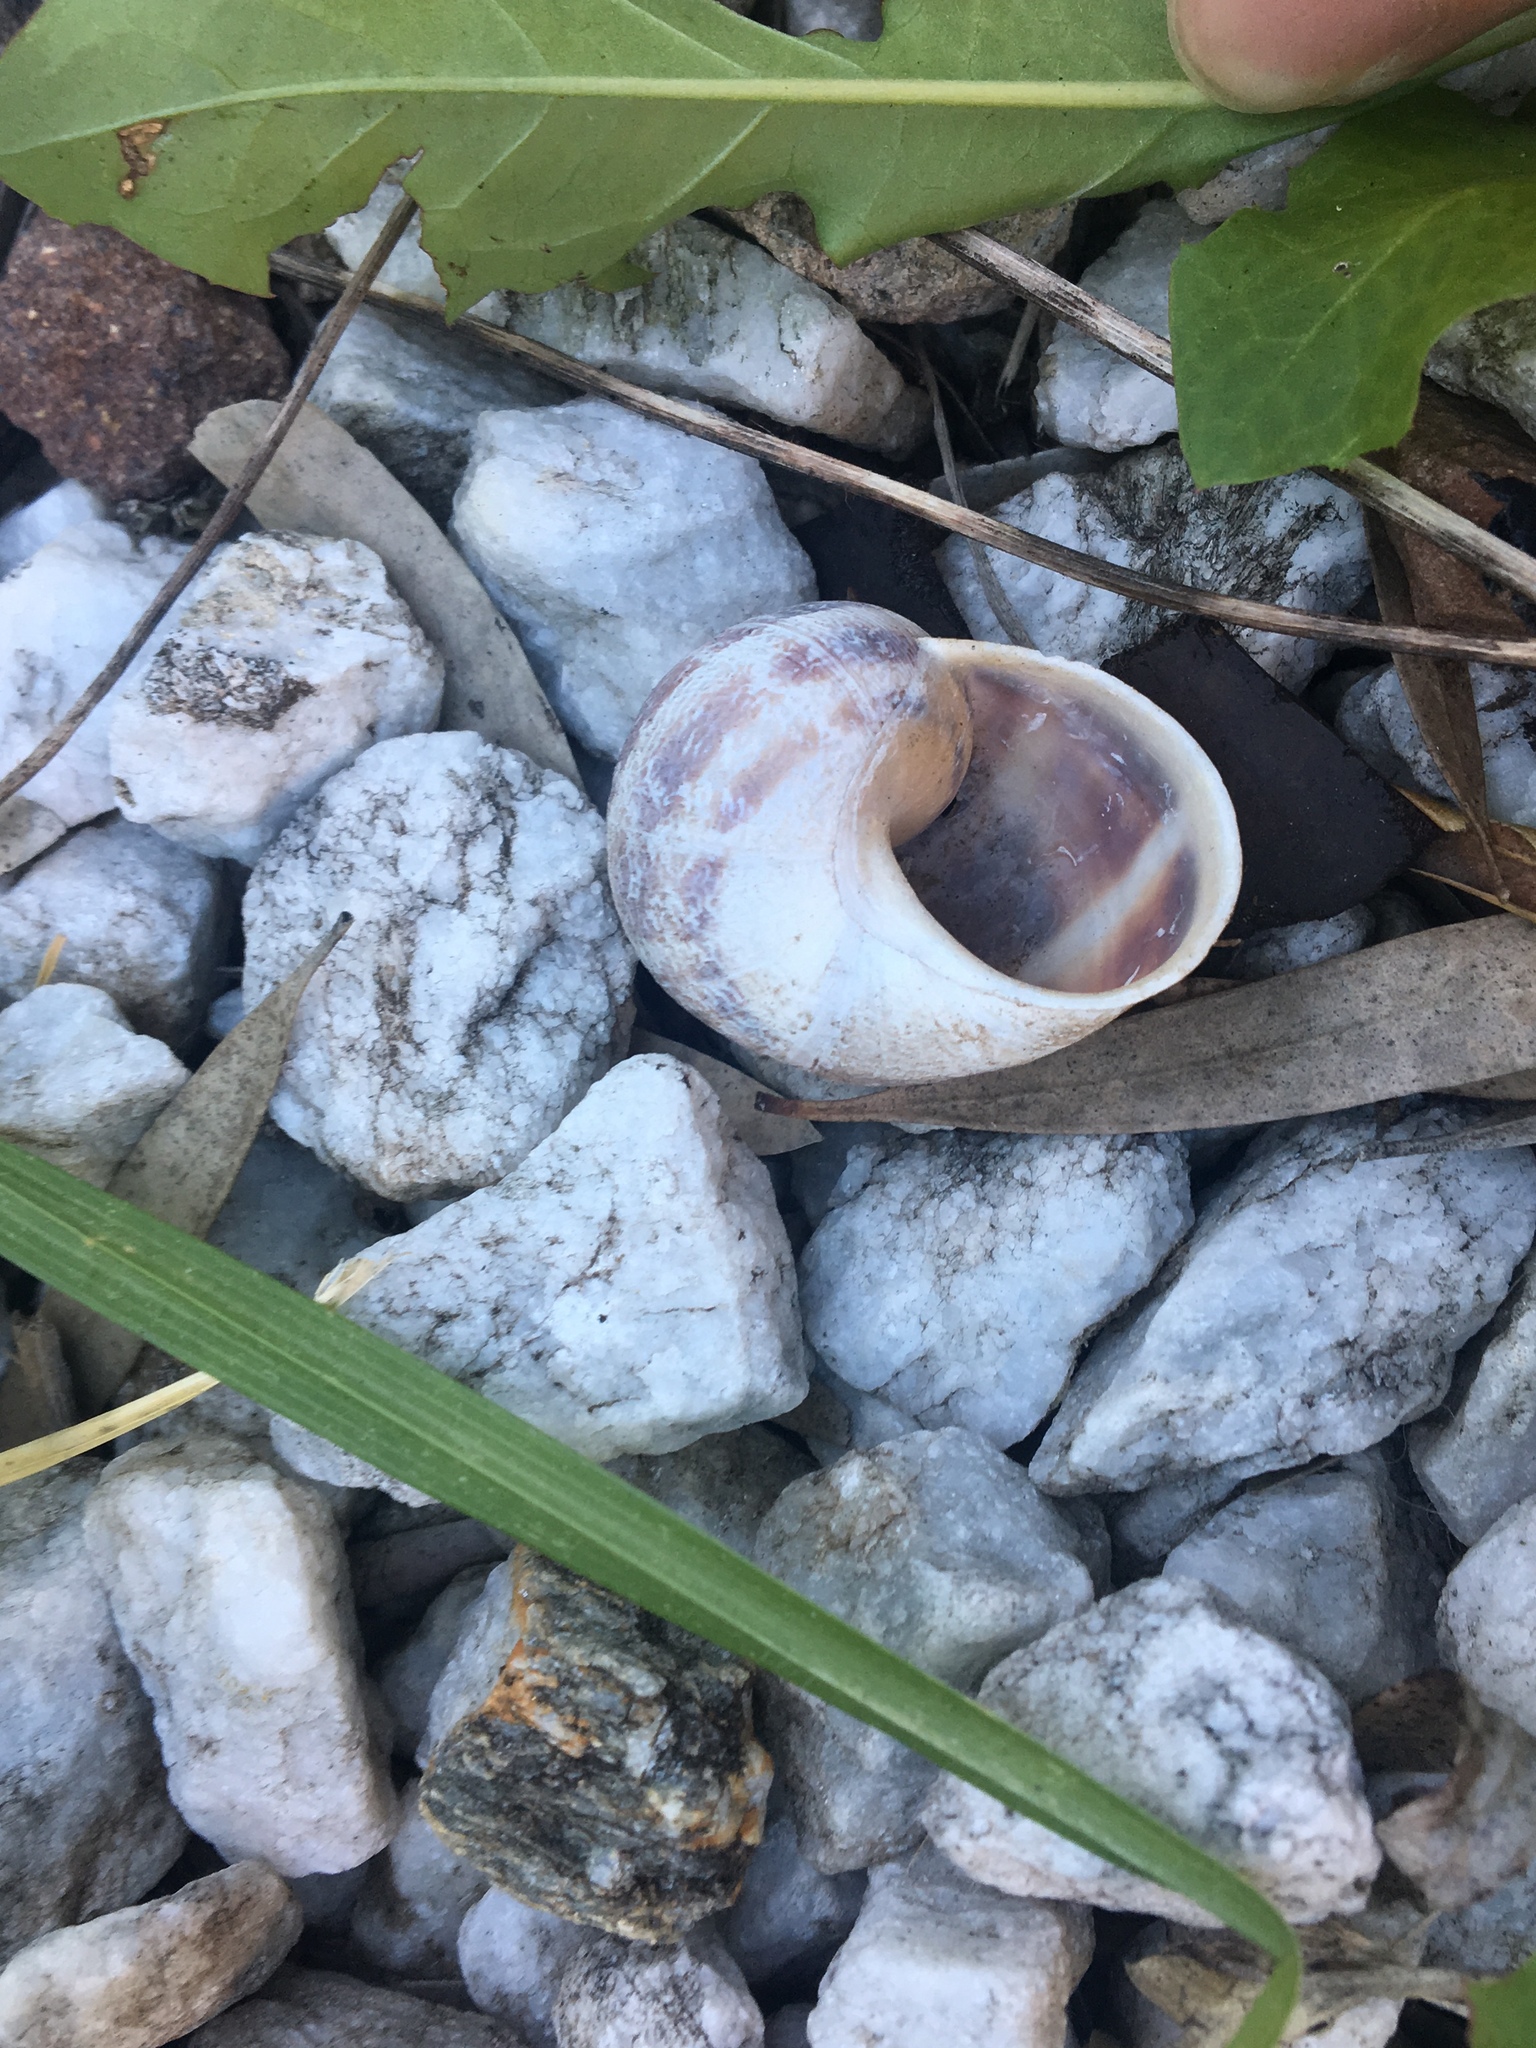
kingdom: Animalia
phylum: Mollusca
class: Gastropoda
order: Stylommatophora
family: Helicidae
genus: Cornu
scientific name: Cornu aspersum
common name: Brown garden snail
